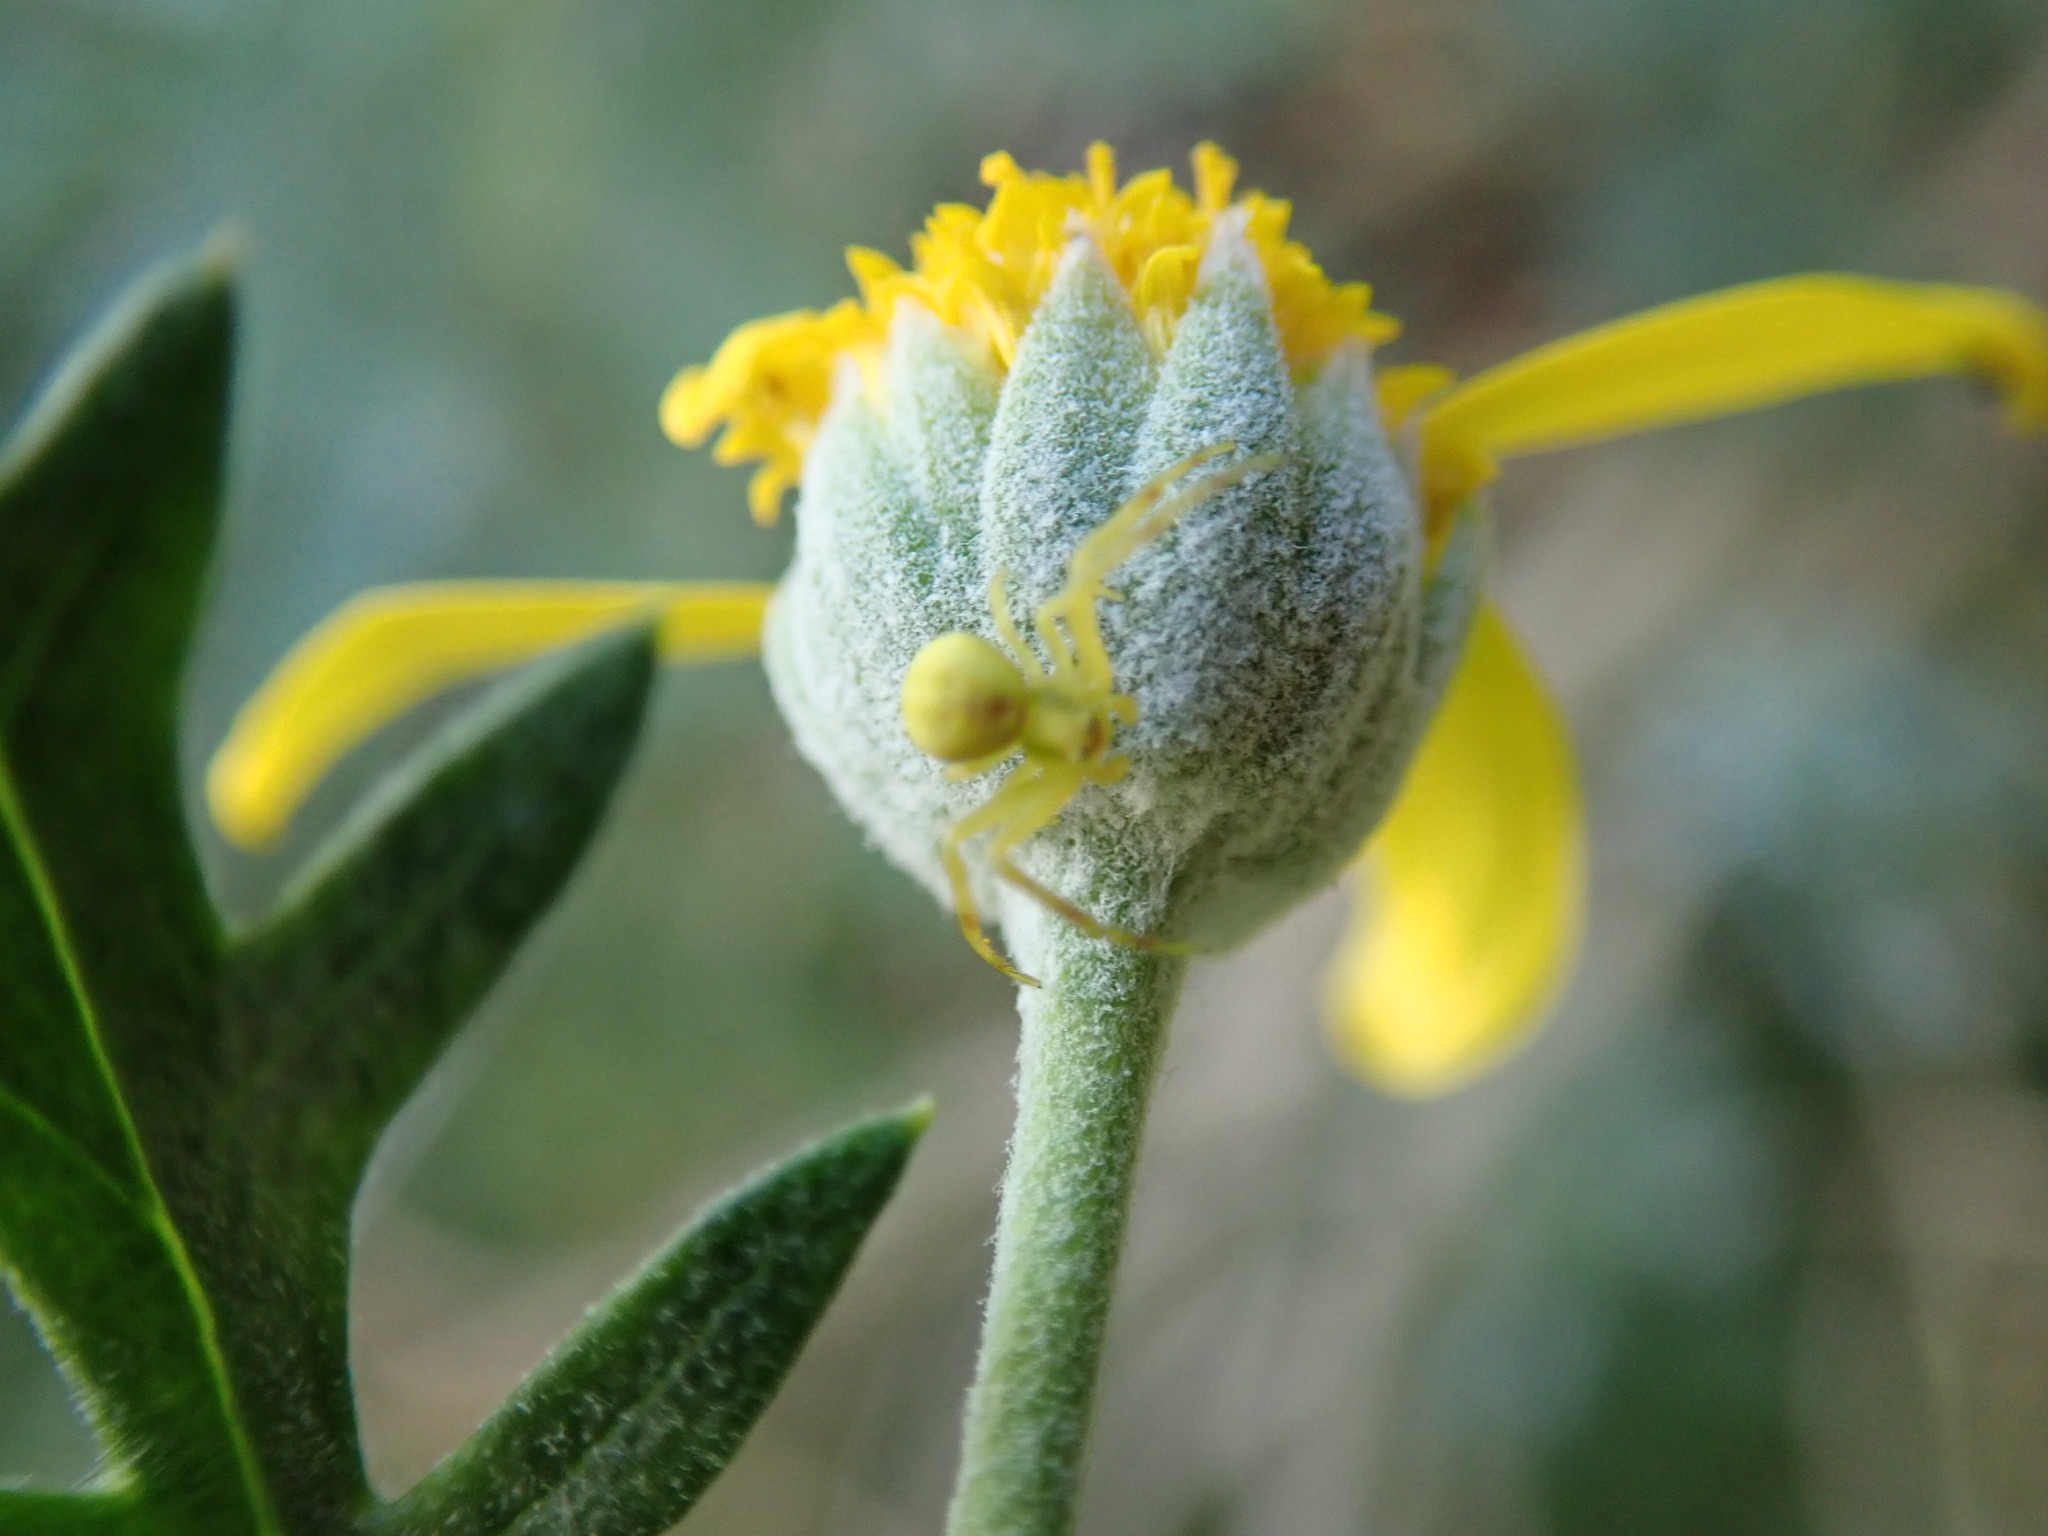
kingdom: Animalia
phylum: Arthropoda
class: Arachnida
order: Araneae
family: Thomisidae
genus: Misumena
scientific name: Misumena vatia
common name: Goldenrod crab spider
